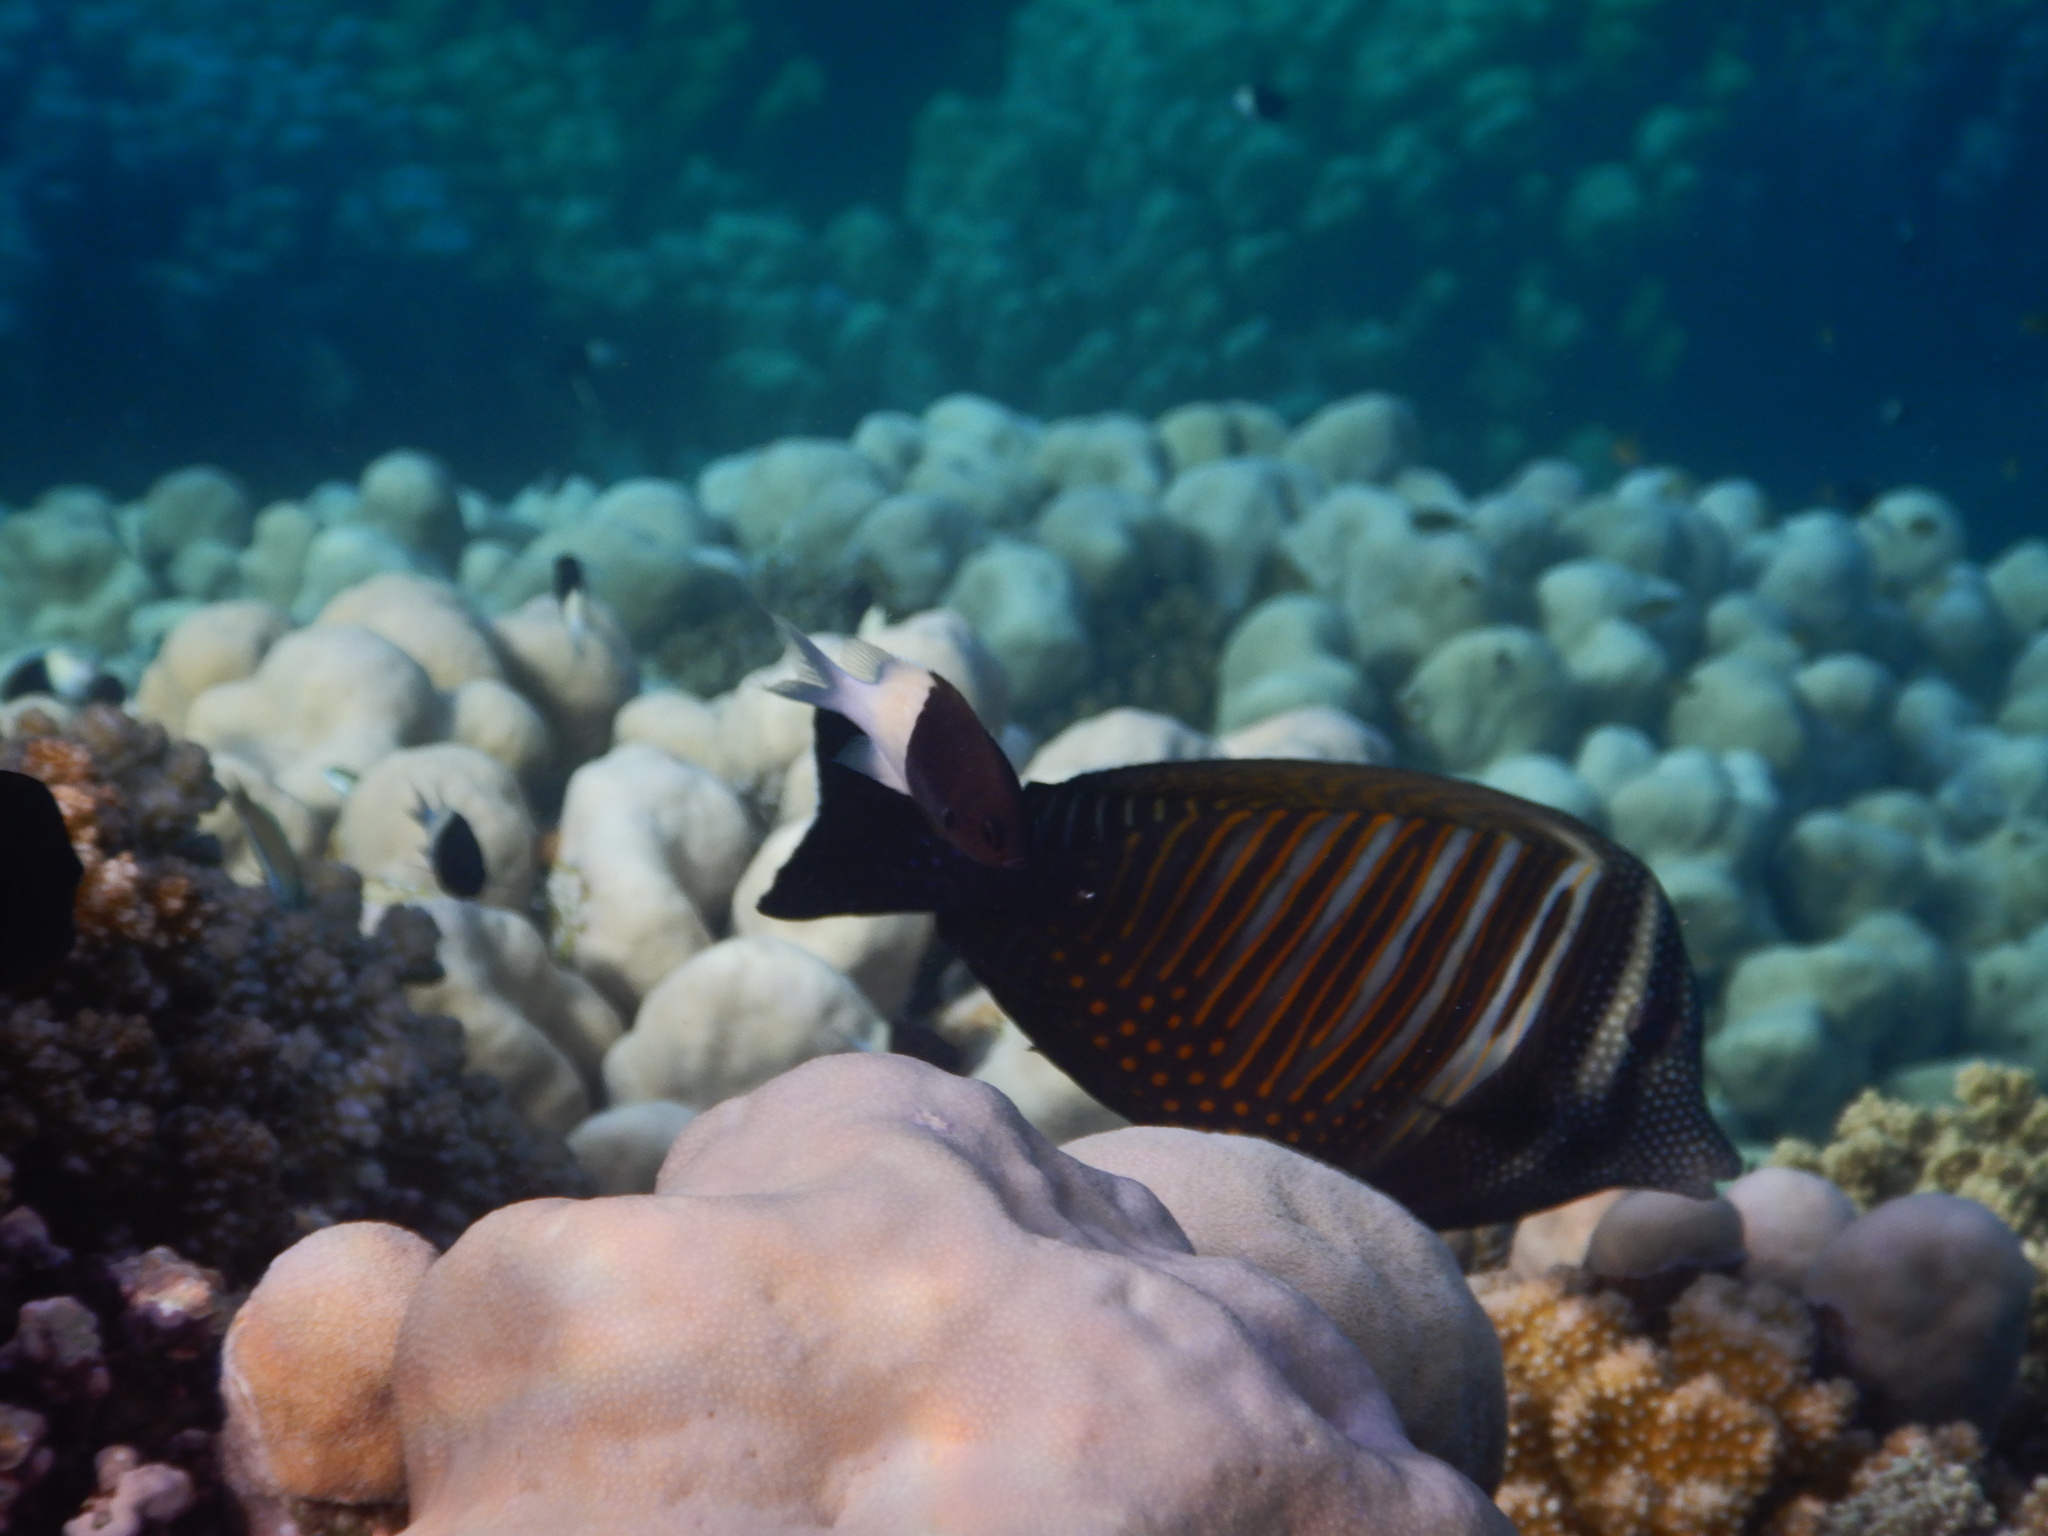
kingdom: Animalia
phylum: Chordata
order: Perciformes
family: Acanthuridae
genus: Zebrasoma
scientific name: Zebrasoma desjardinii
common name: Desjardin's sailfin tang
